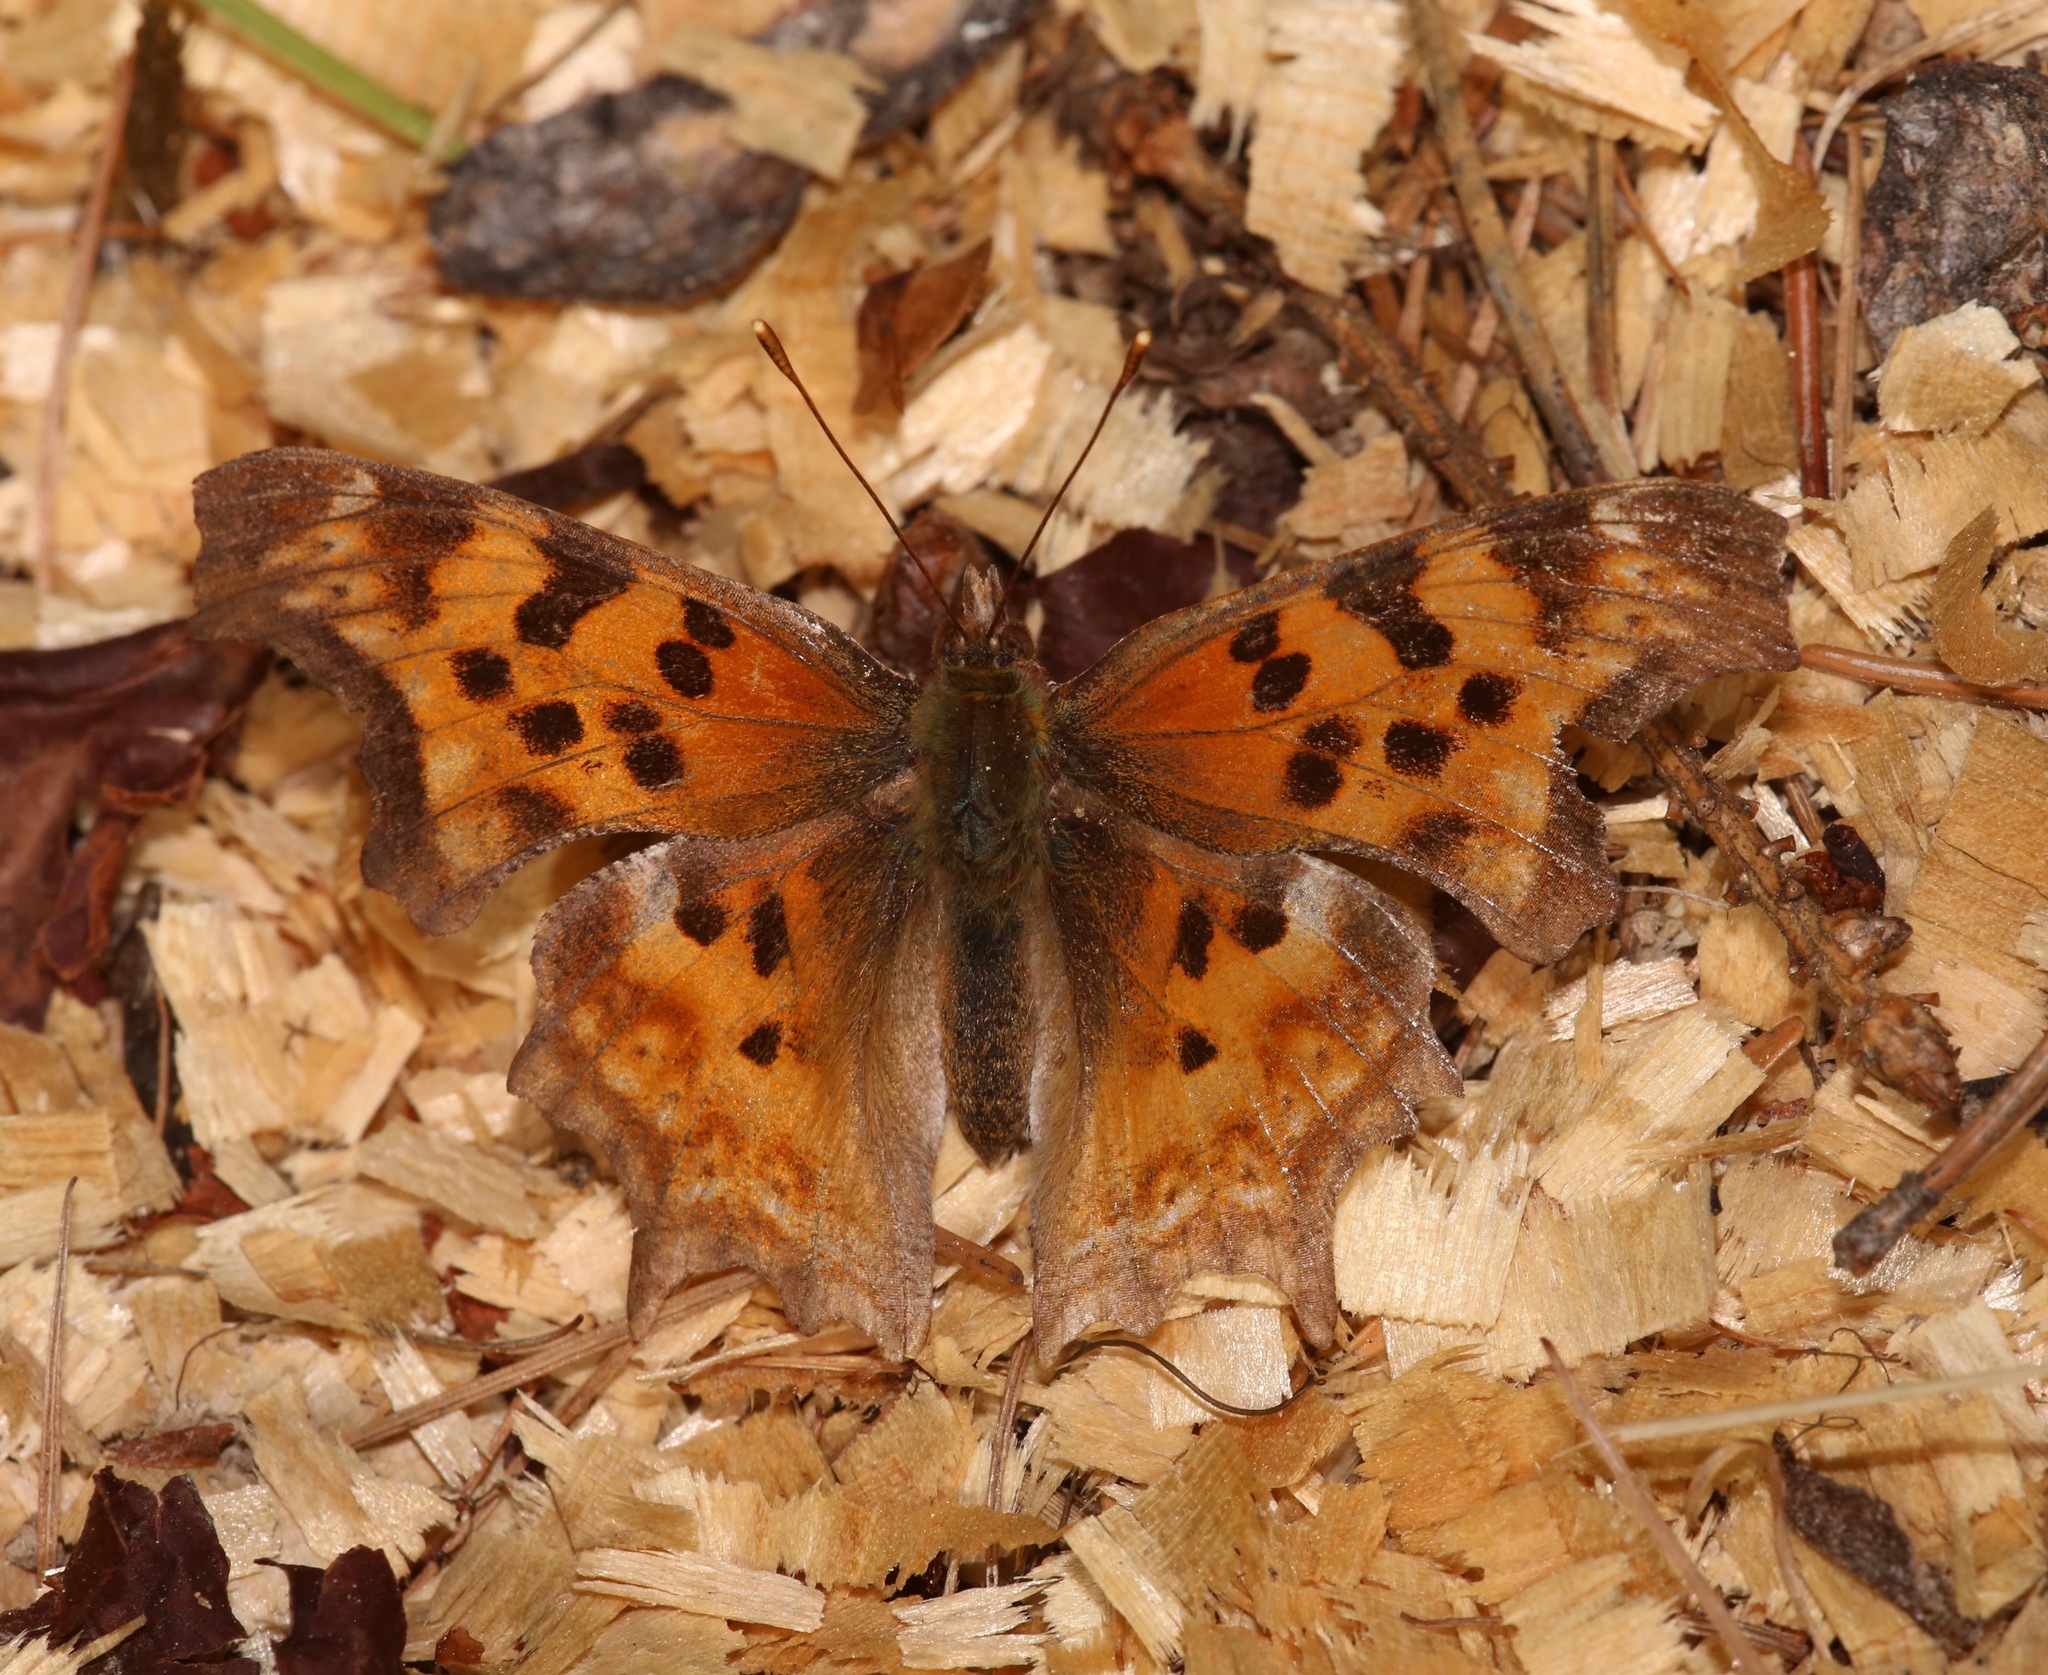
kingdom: Animalia
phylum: Arthropoda
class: Insecta
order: Lepidoptera
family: Nymphalidae
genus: Polygonia
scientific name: Polygonia satyrus
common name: Satyr angle wing
